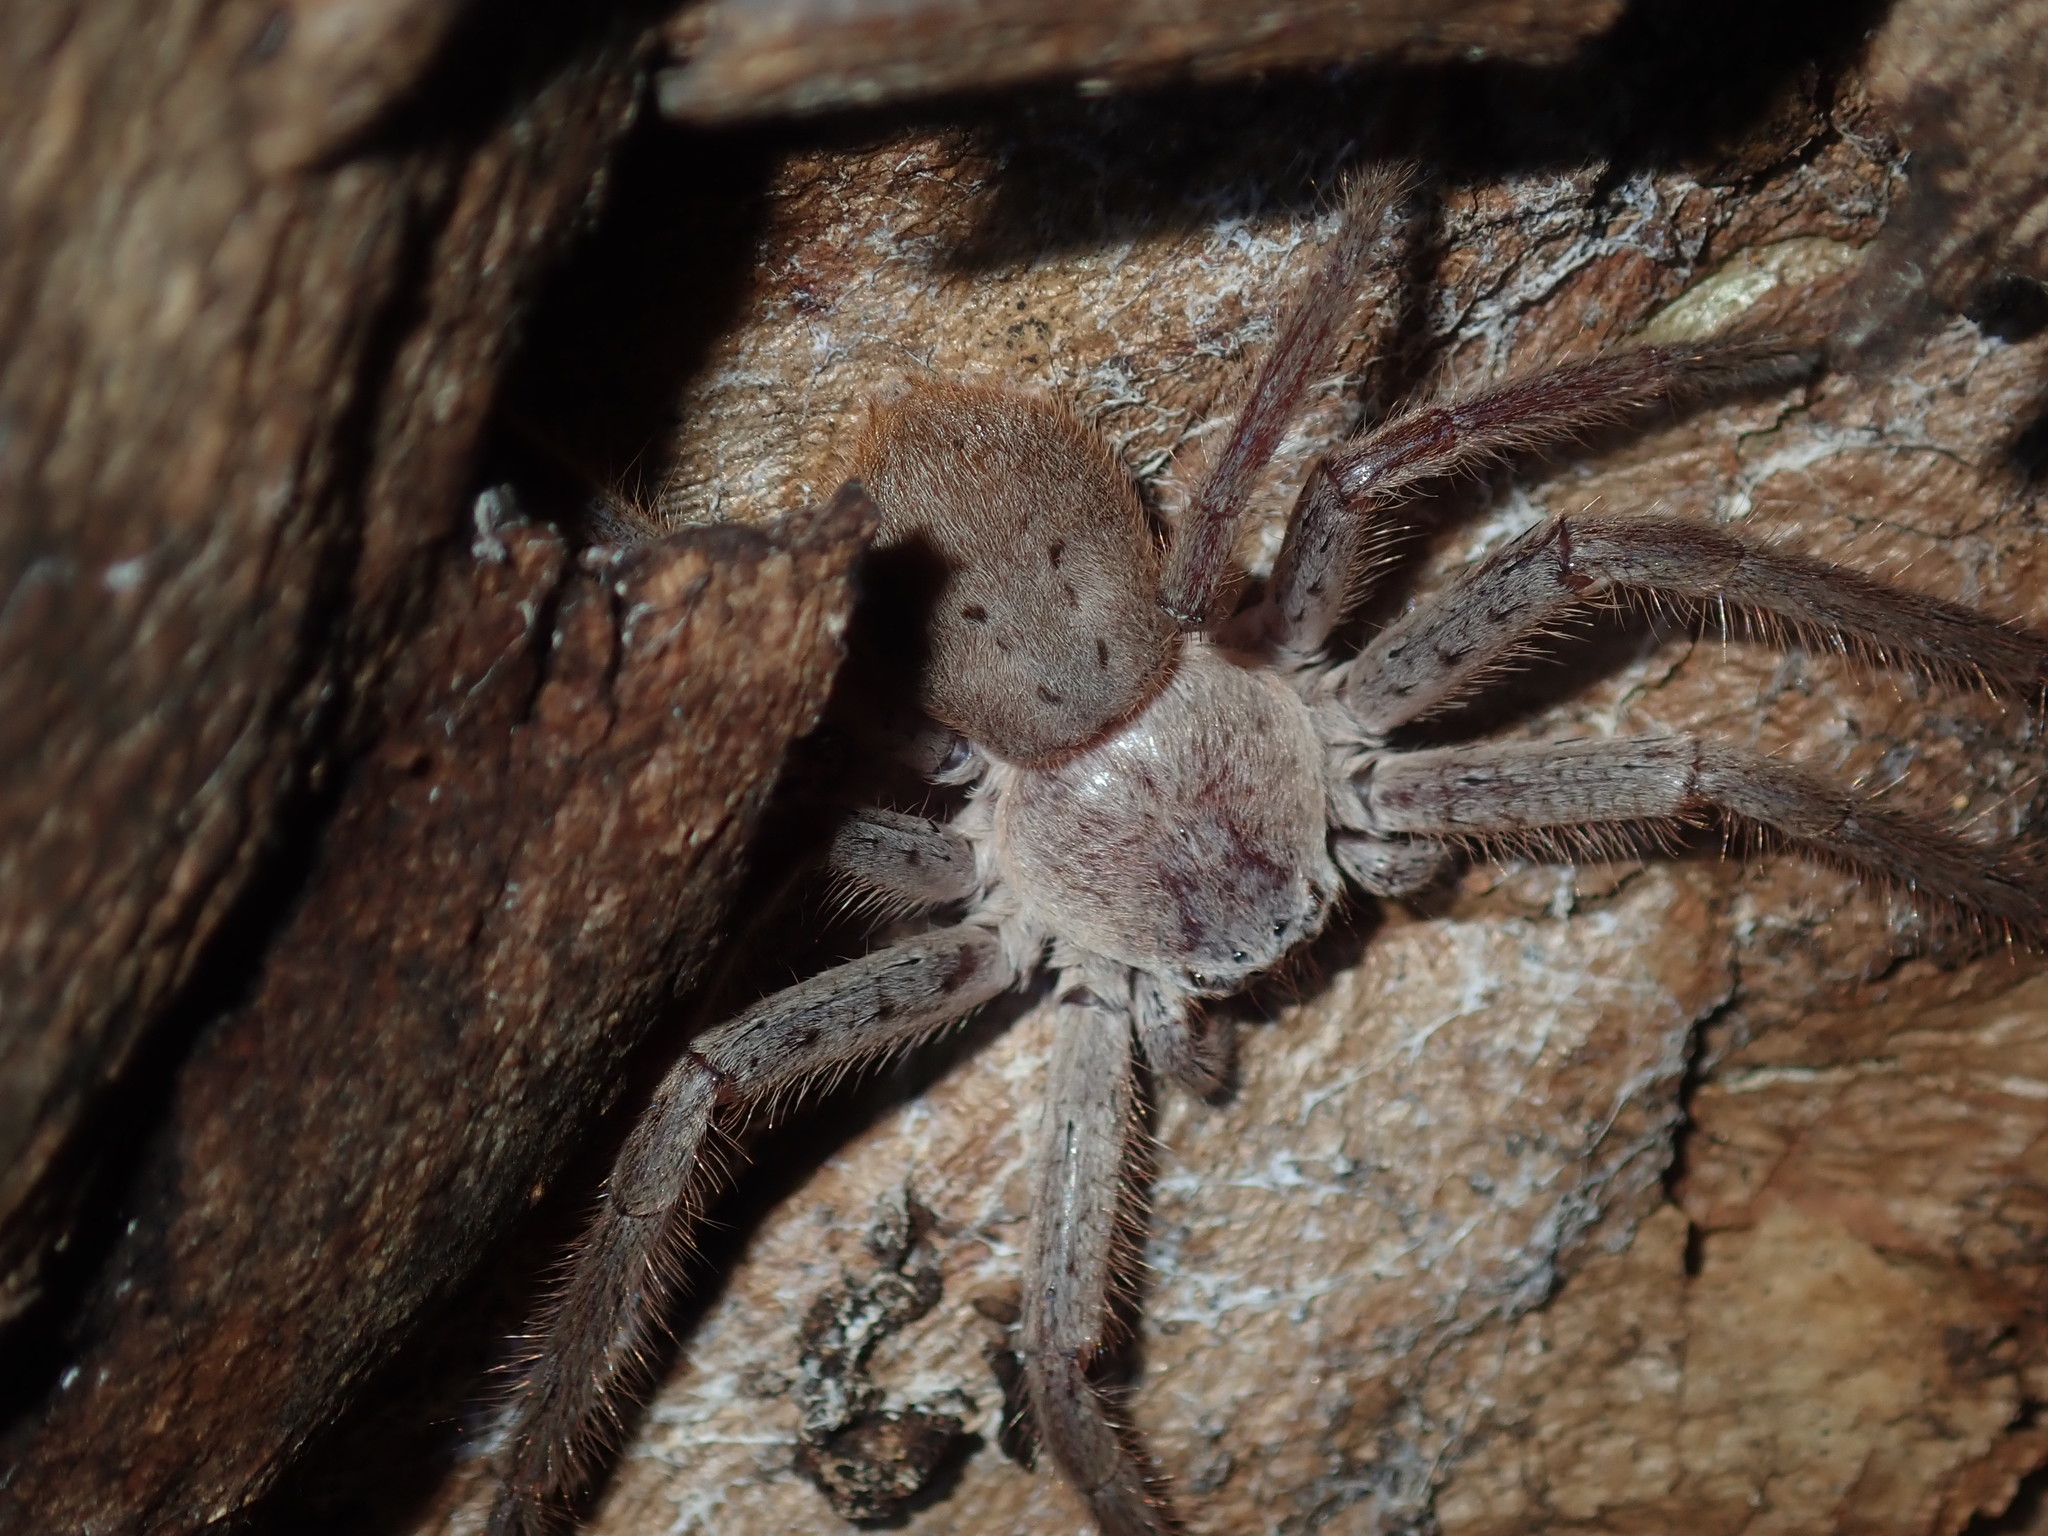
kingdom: Animalia
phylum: Arthropoda
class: Arachnida
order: Araneae
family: Sparassidae
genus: Isopeda
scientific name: Isopeda villosa
